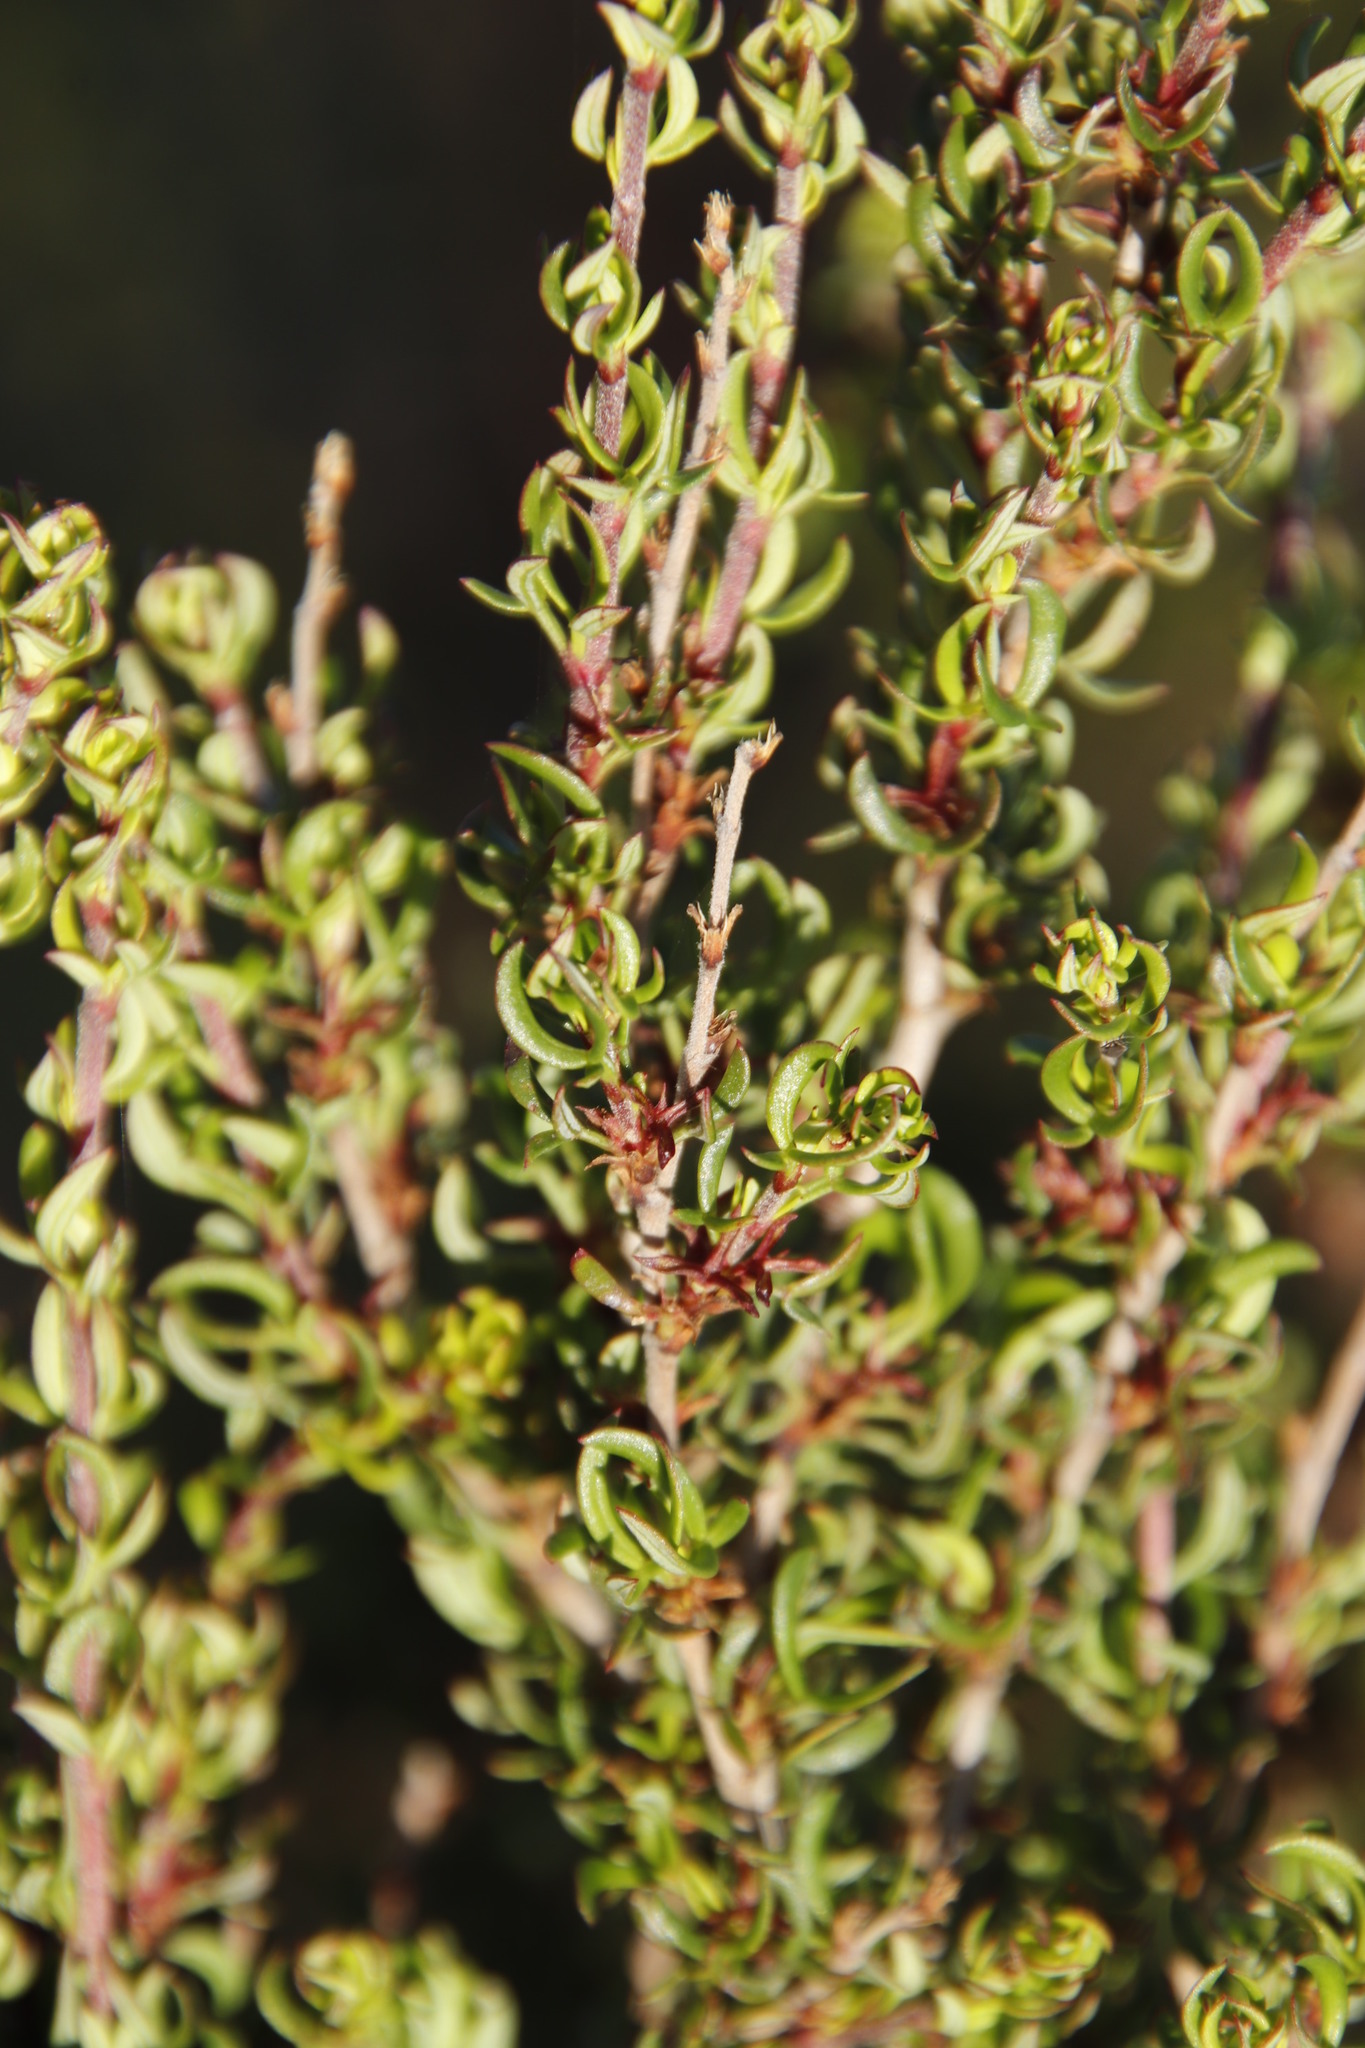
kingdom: Plantae
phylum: Tracheophyta
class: Magnoliopsida
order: Rosales
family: Rosaceae
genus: Cliffortia
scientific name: Cliffortia falcata
